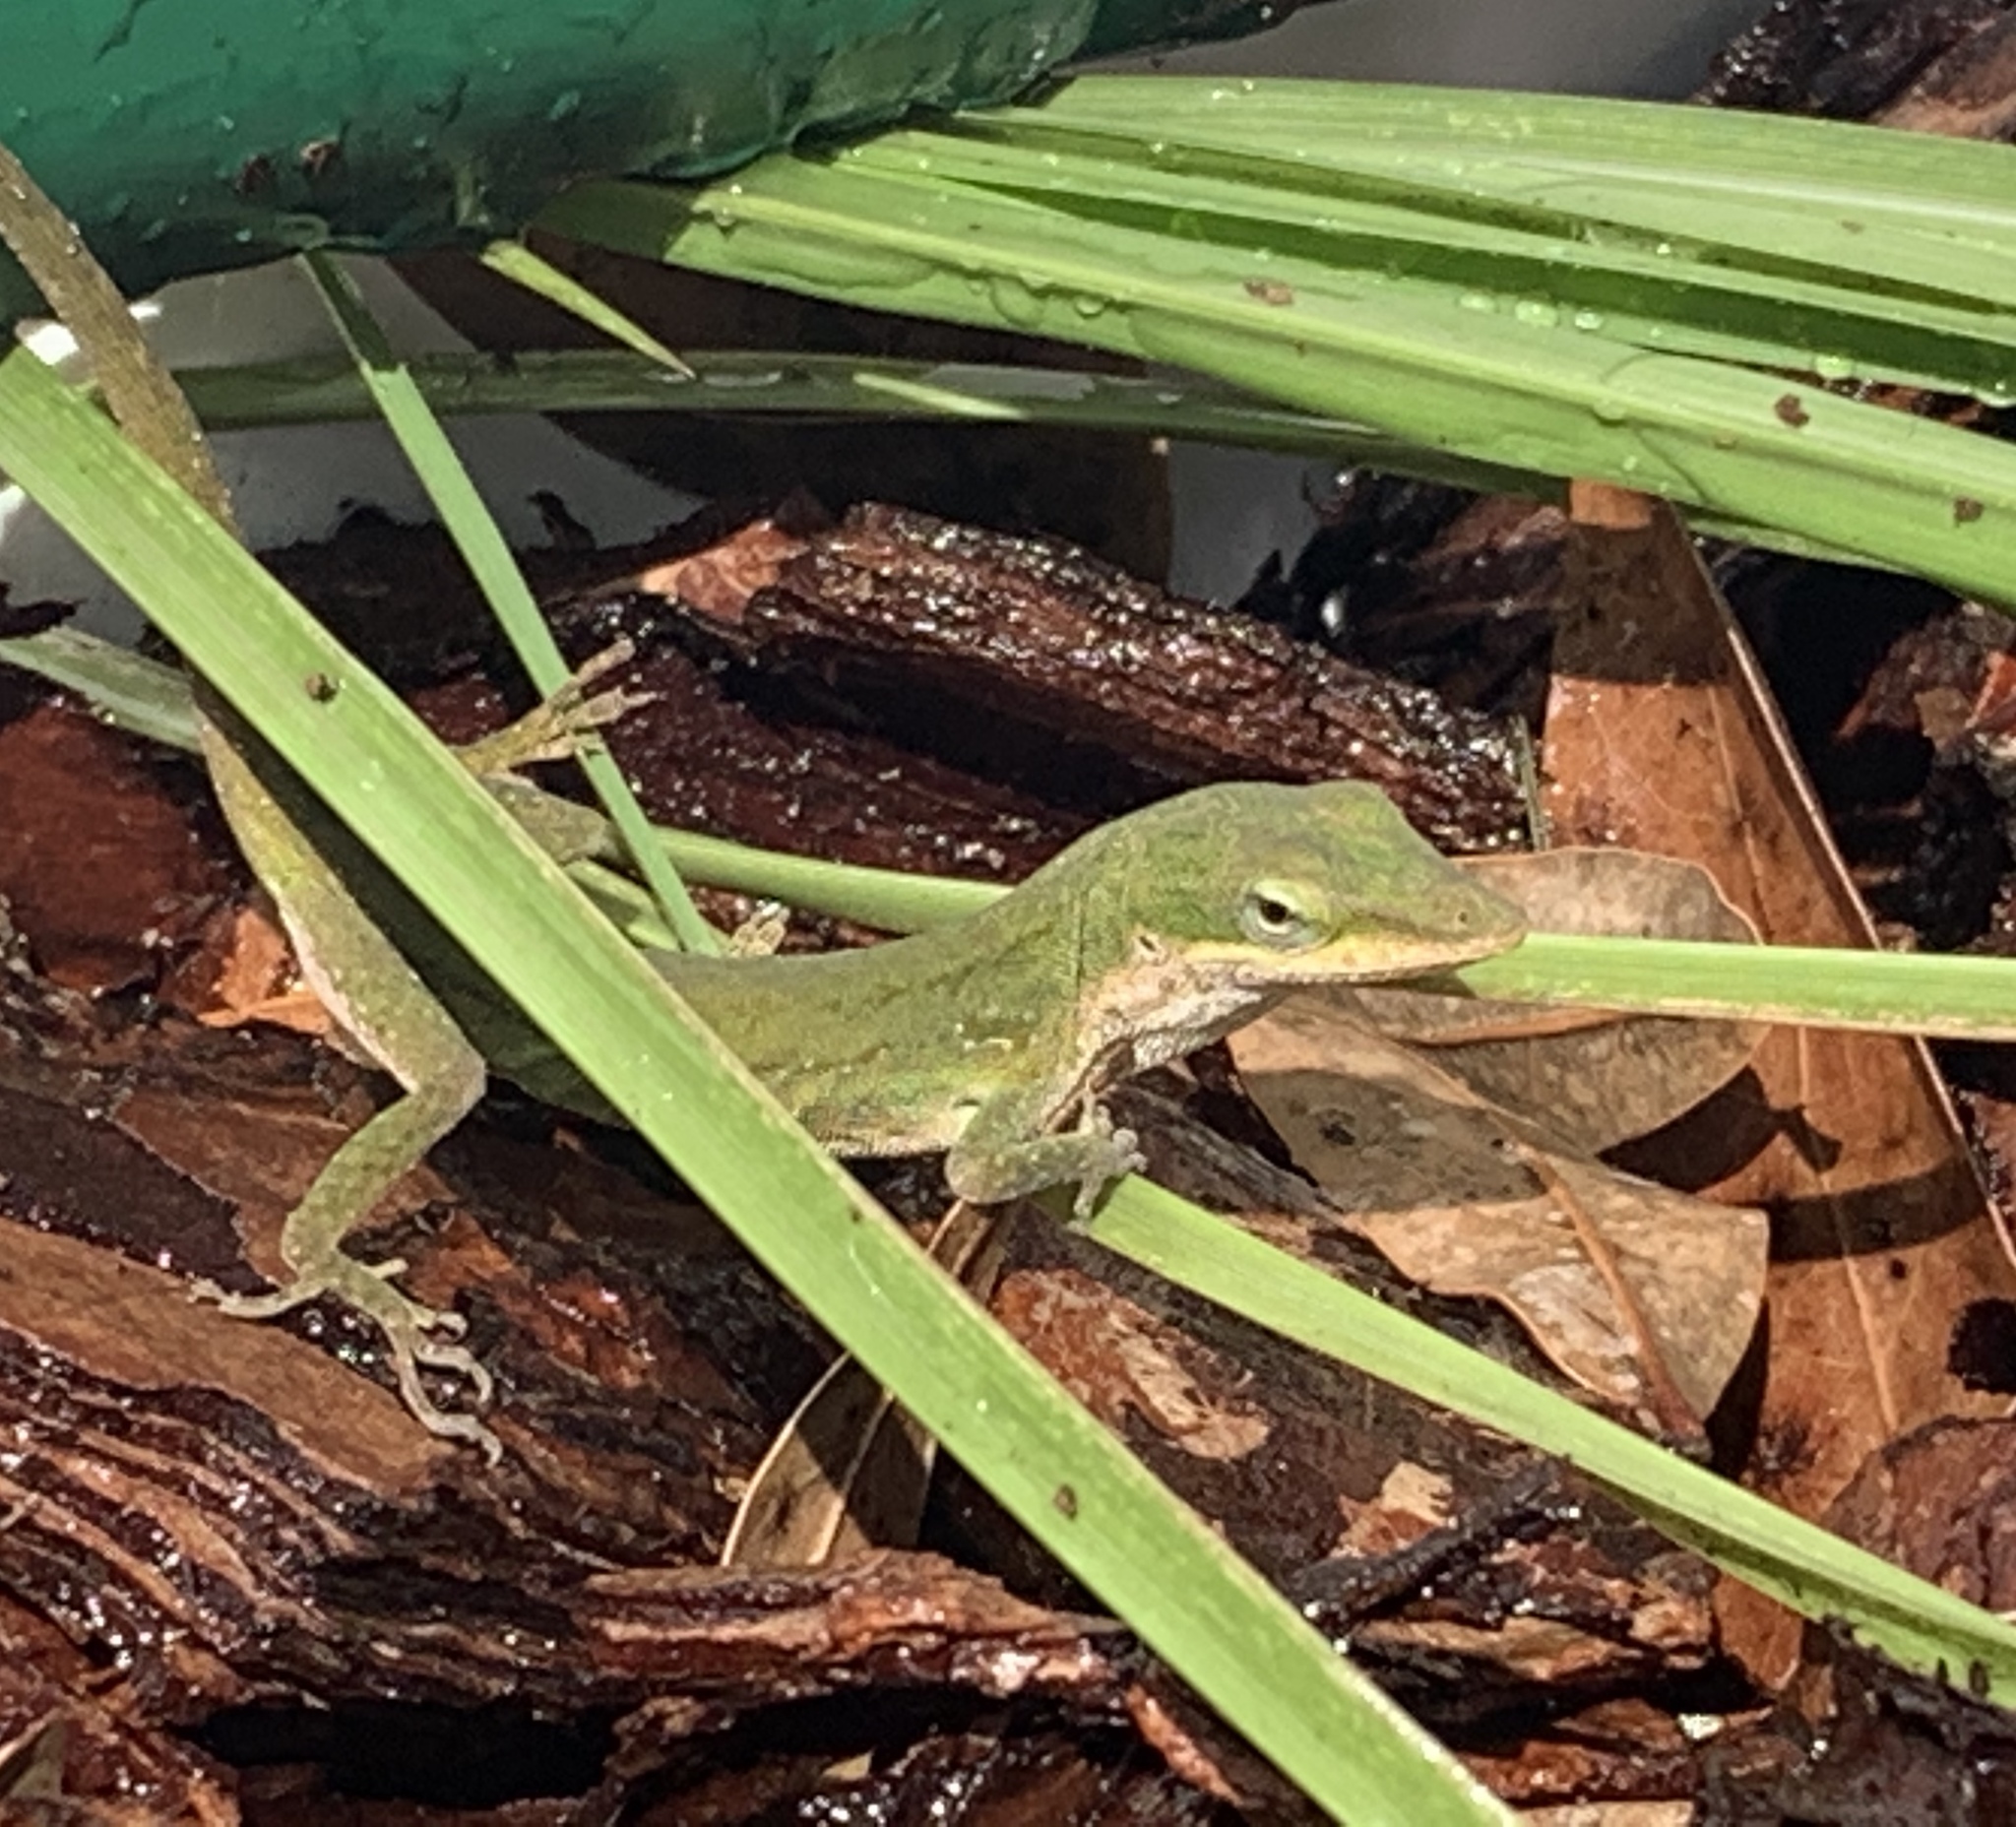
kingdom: Animalia
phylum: Chordata
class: Squamata
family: Dactyloidae
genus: Anolis
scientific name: Anolis carolinensis
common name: Green anole
